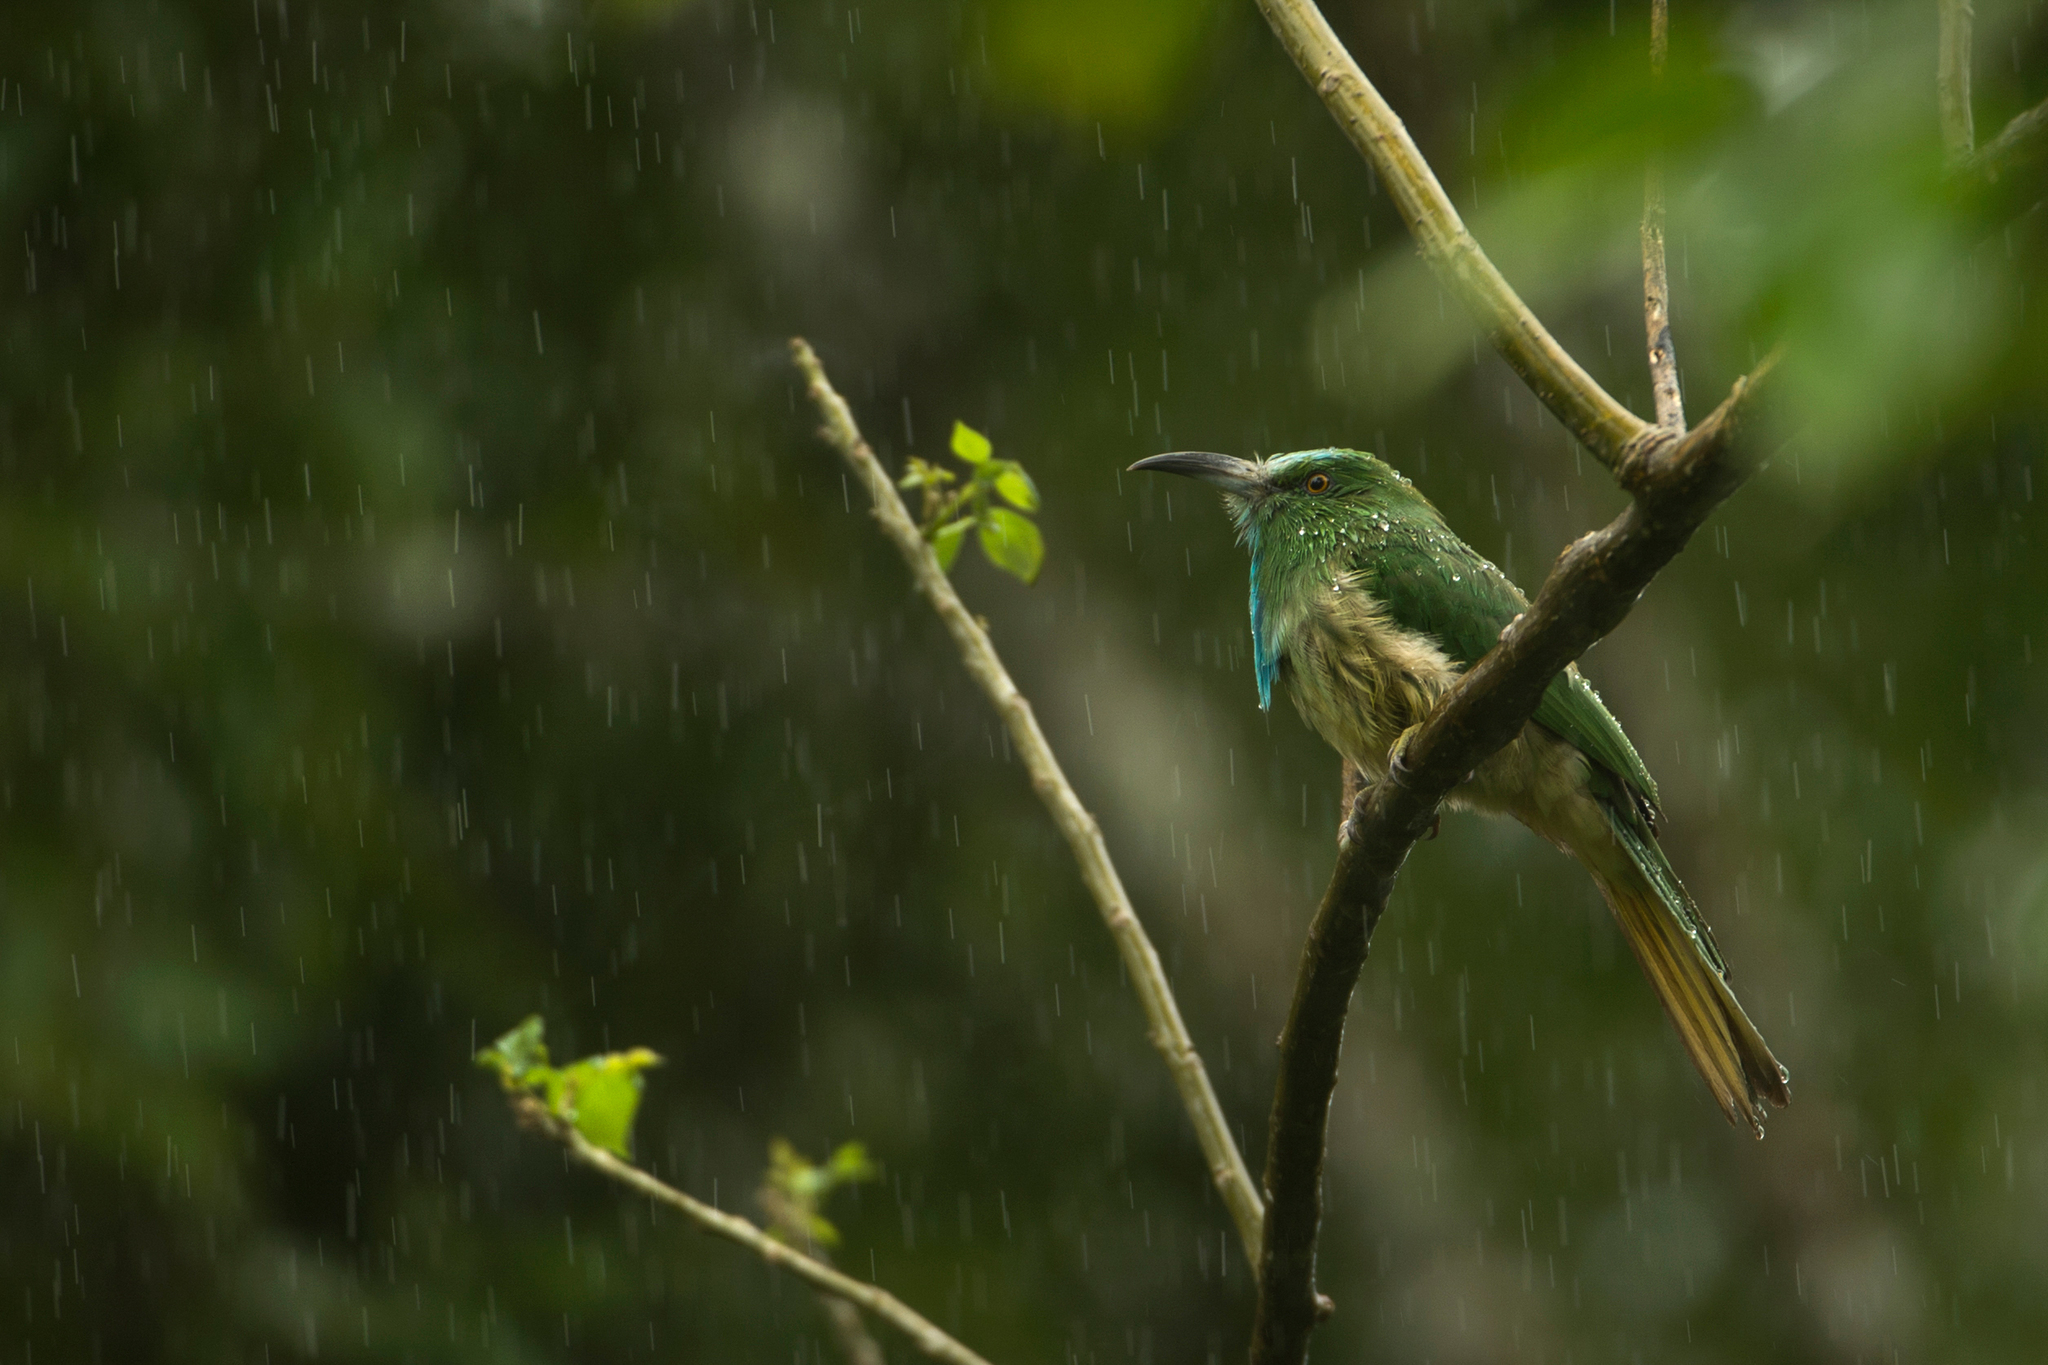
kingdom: Animalia
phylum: Chordata
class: Aves
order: Coraciiformes
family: Meropidae
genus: Nyctyornis
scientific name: Nyctyornis athertoni
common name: Blue-bearded bee-eater
